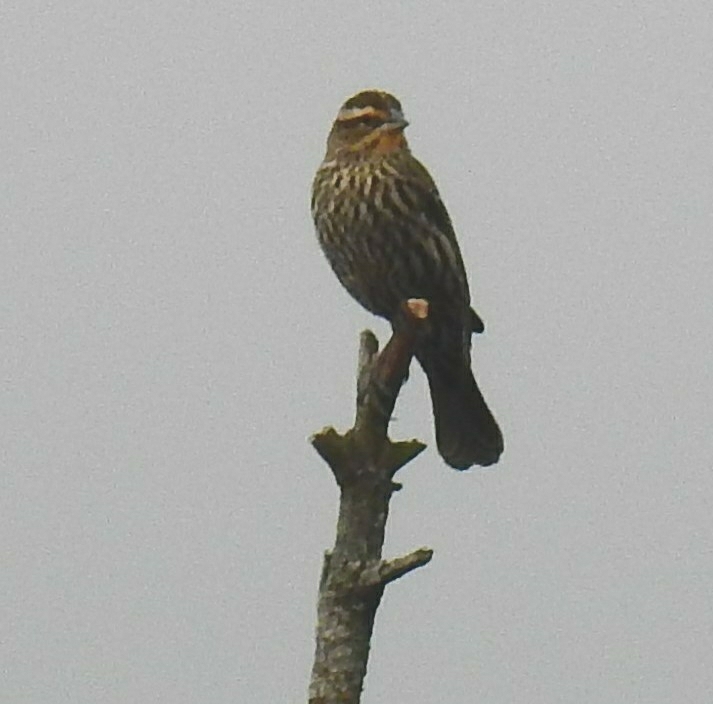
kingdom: Animalia
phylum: Chordata
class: Aves
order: Passeriformes
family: Icteridae
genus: Agelaius
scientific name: Agelaius phoeniceus
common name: Red-winged blackbird
